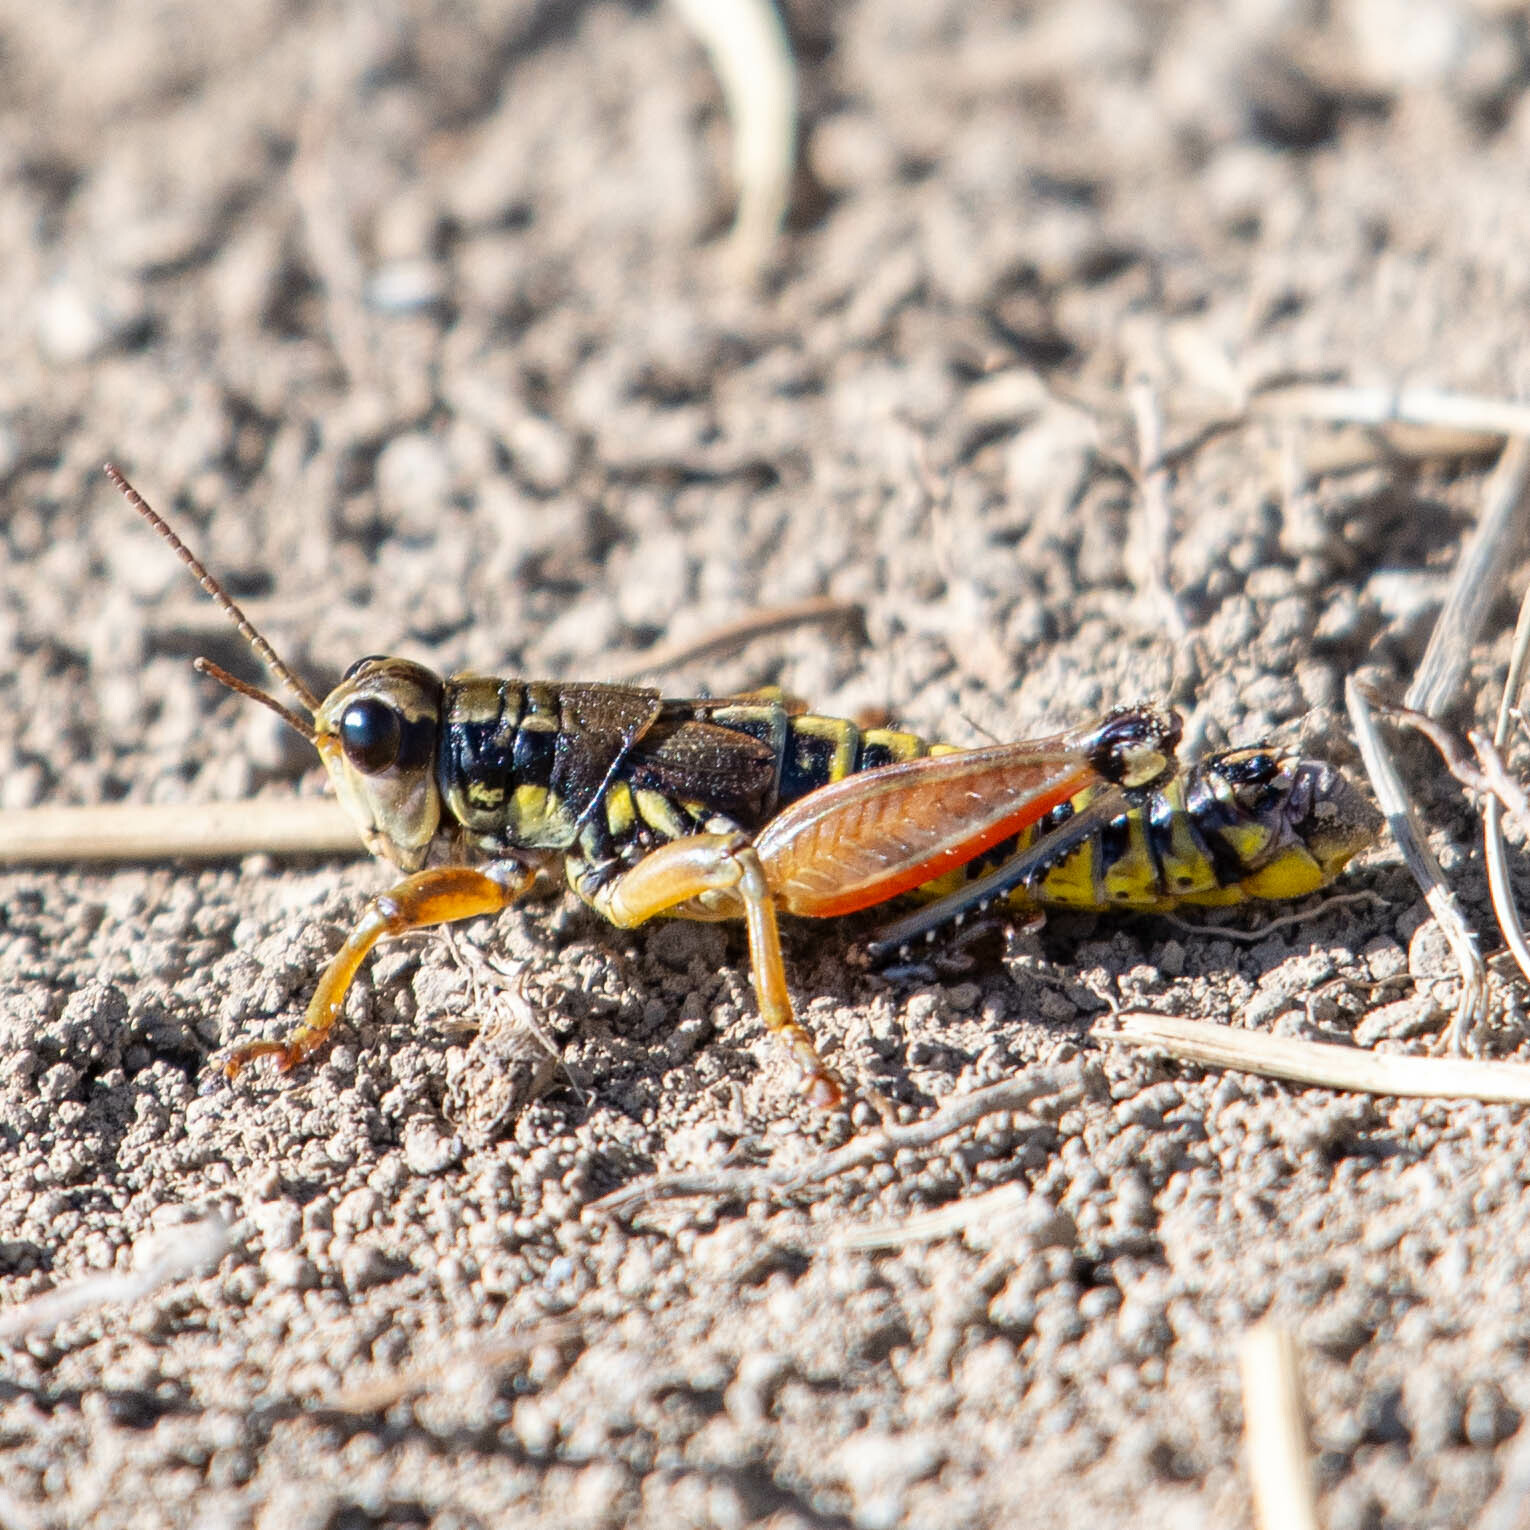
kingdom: Animalia
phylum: Arthropoda
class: Insecta
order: Orthoptera
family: Acrididae
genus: Podisma
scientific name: Podisma pedestris
